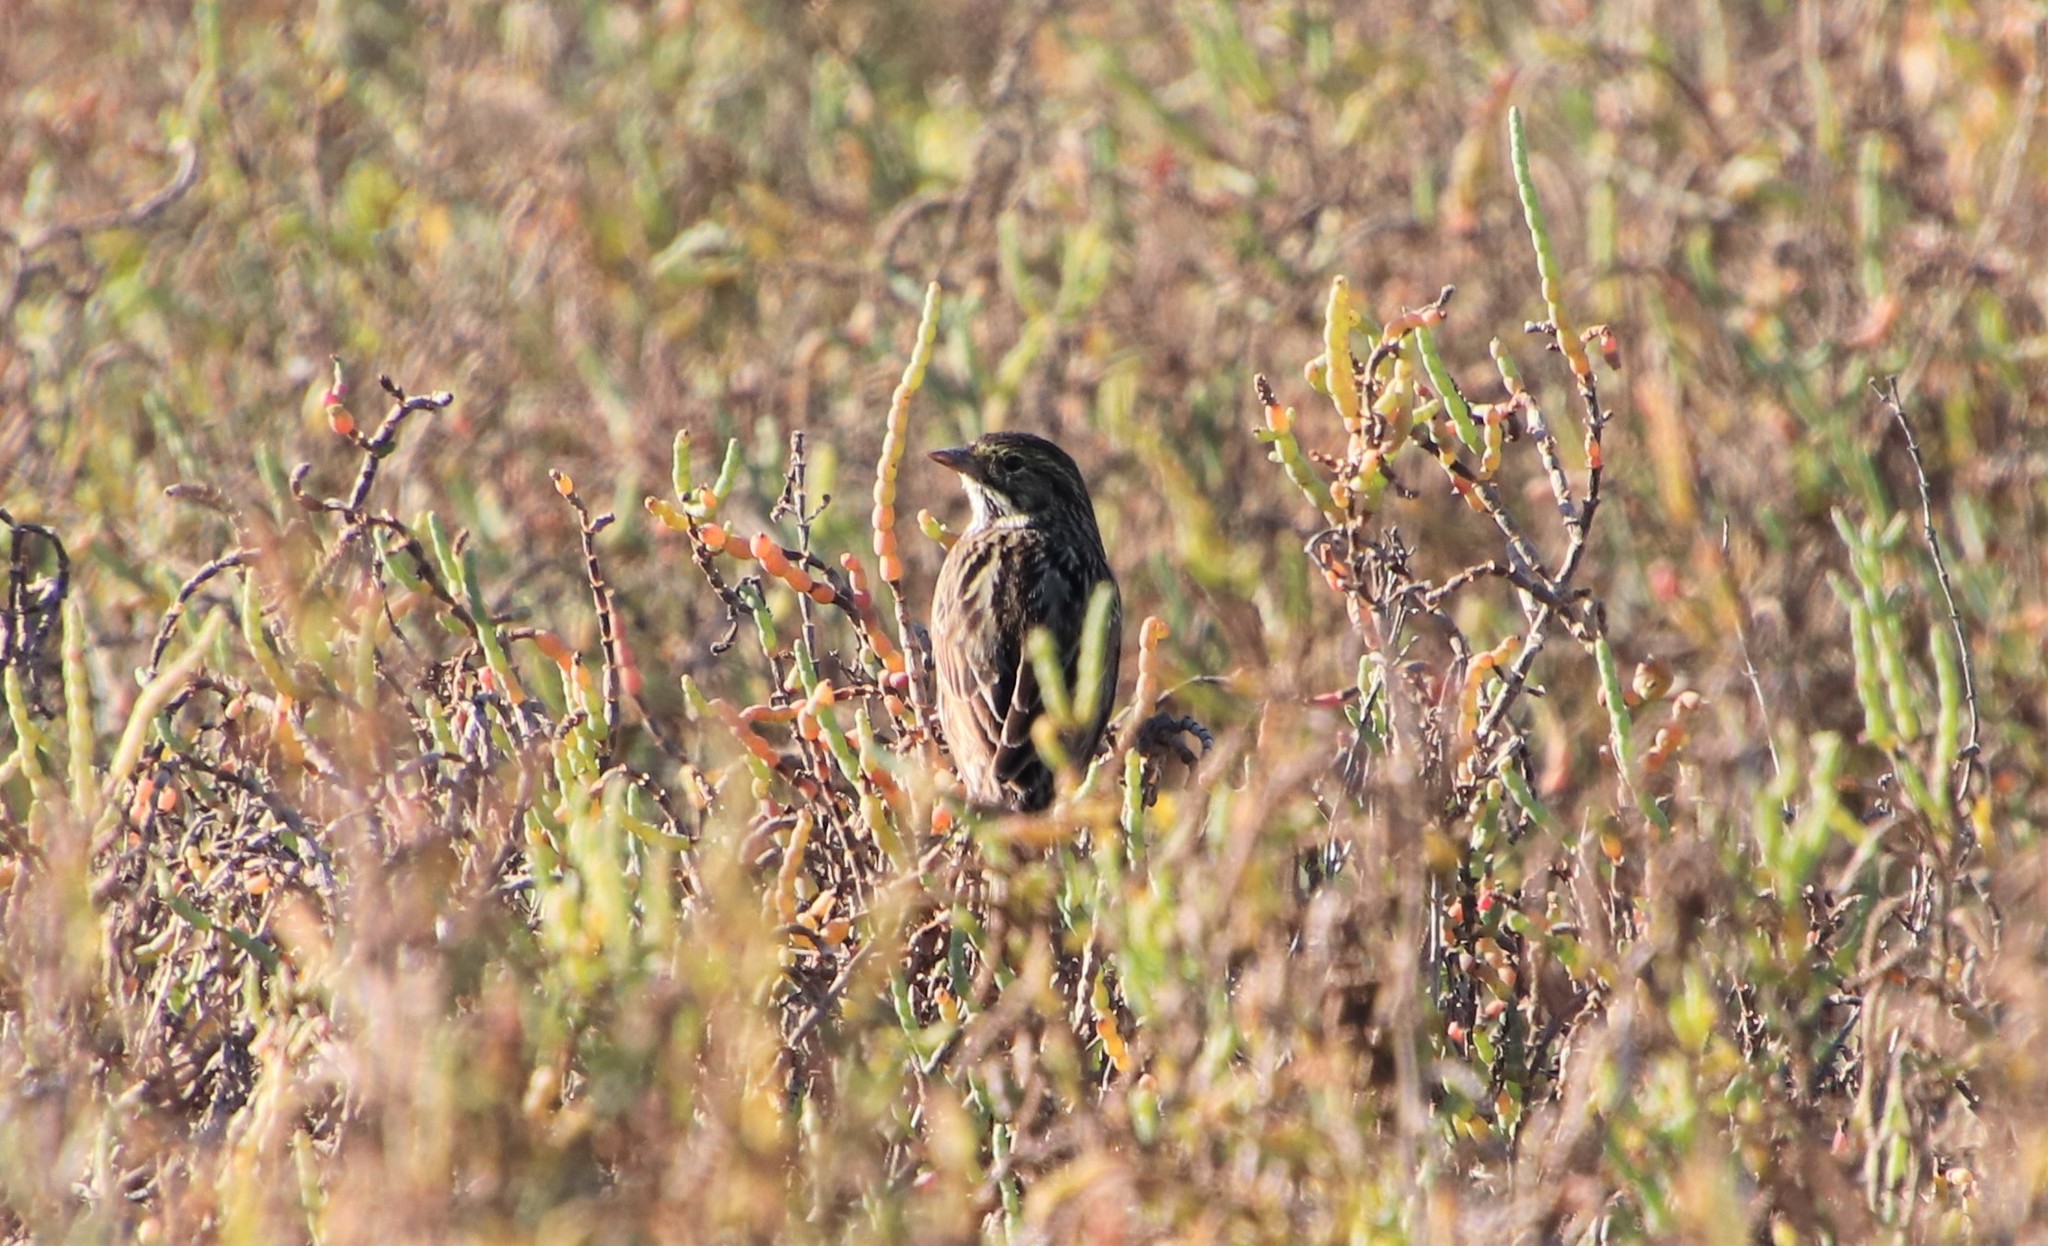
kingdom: Animalia
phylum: Chordata
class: Aves
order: Passeriformes
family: Passerellidae
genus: Passerculus
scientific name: Passerculus sandwichensis
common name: Savannah sparrow
